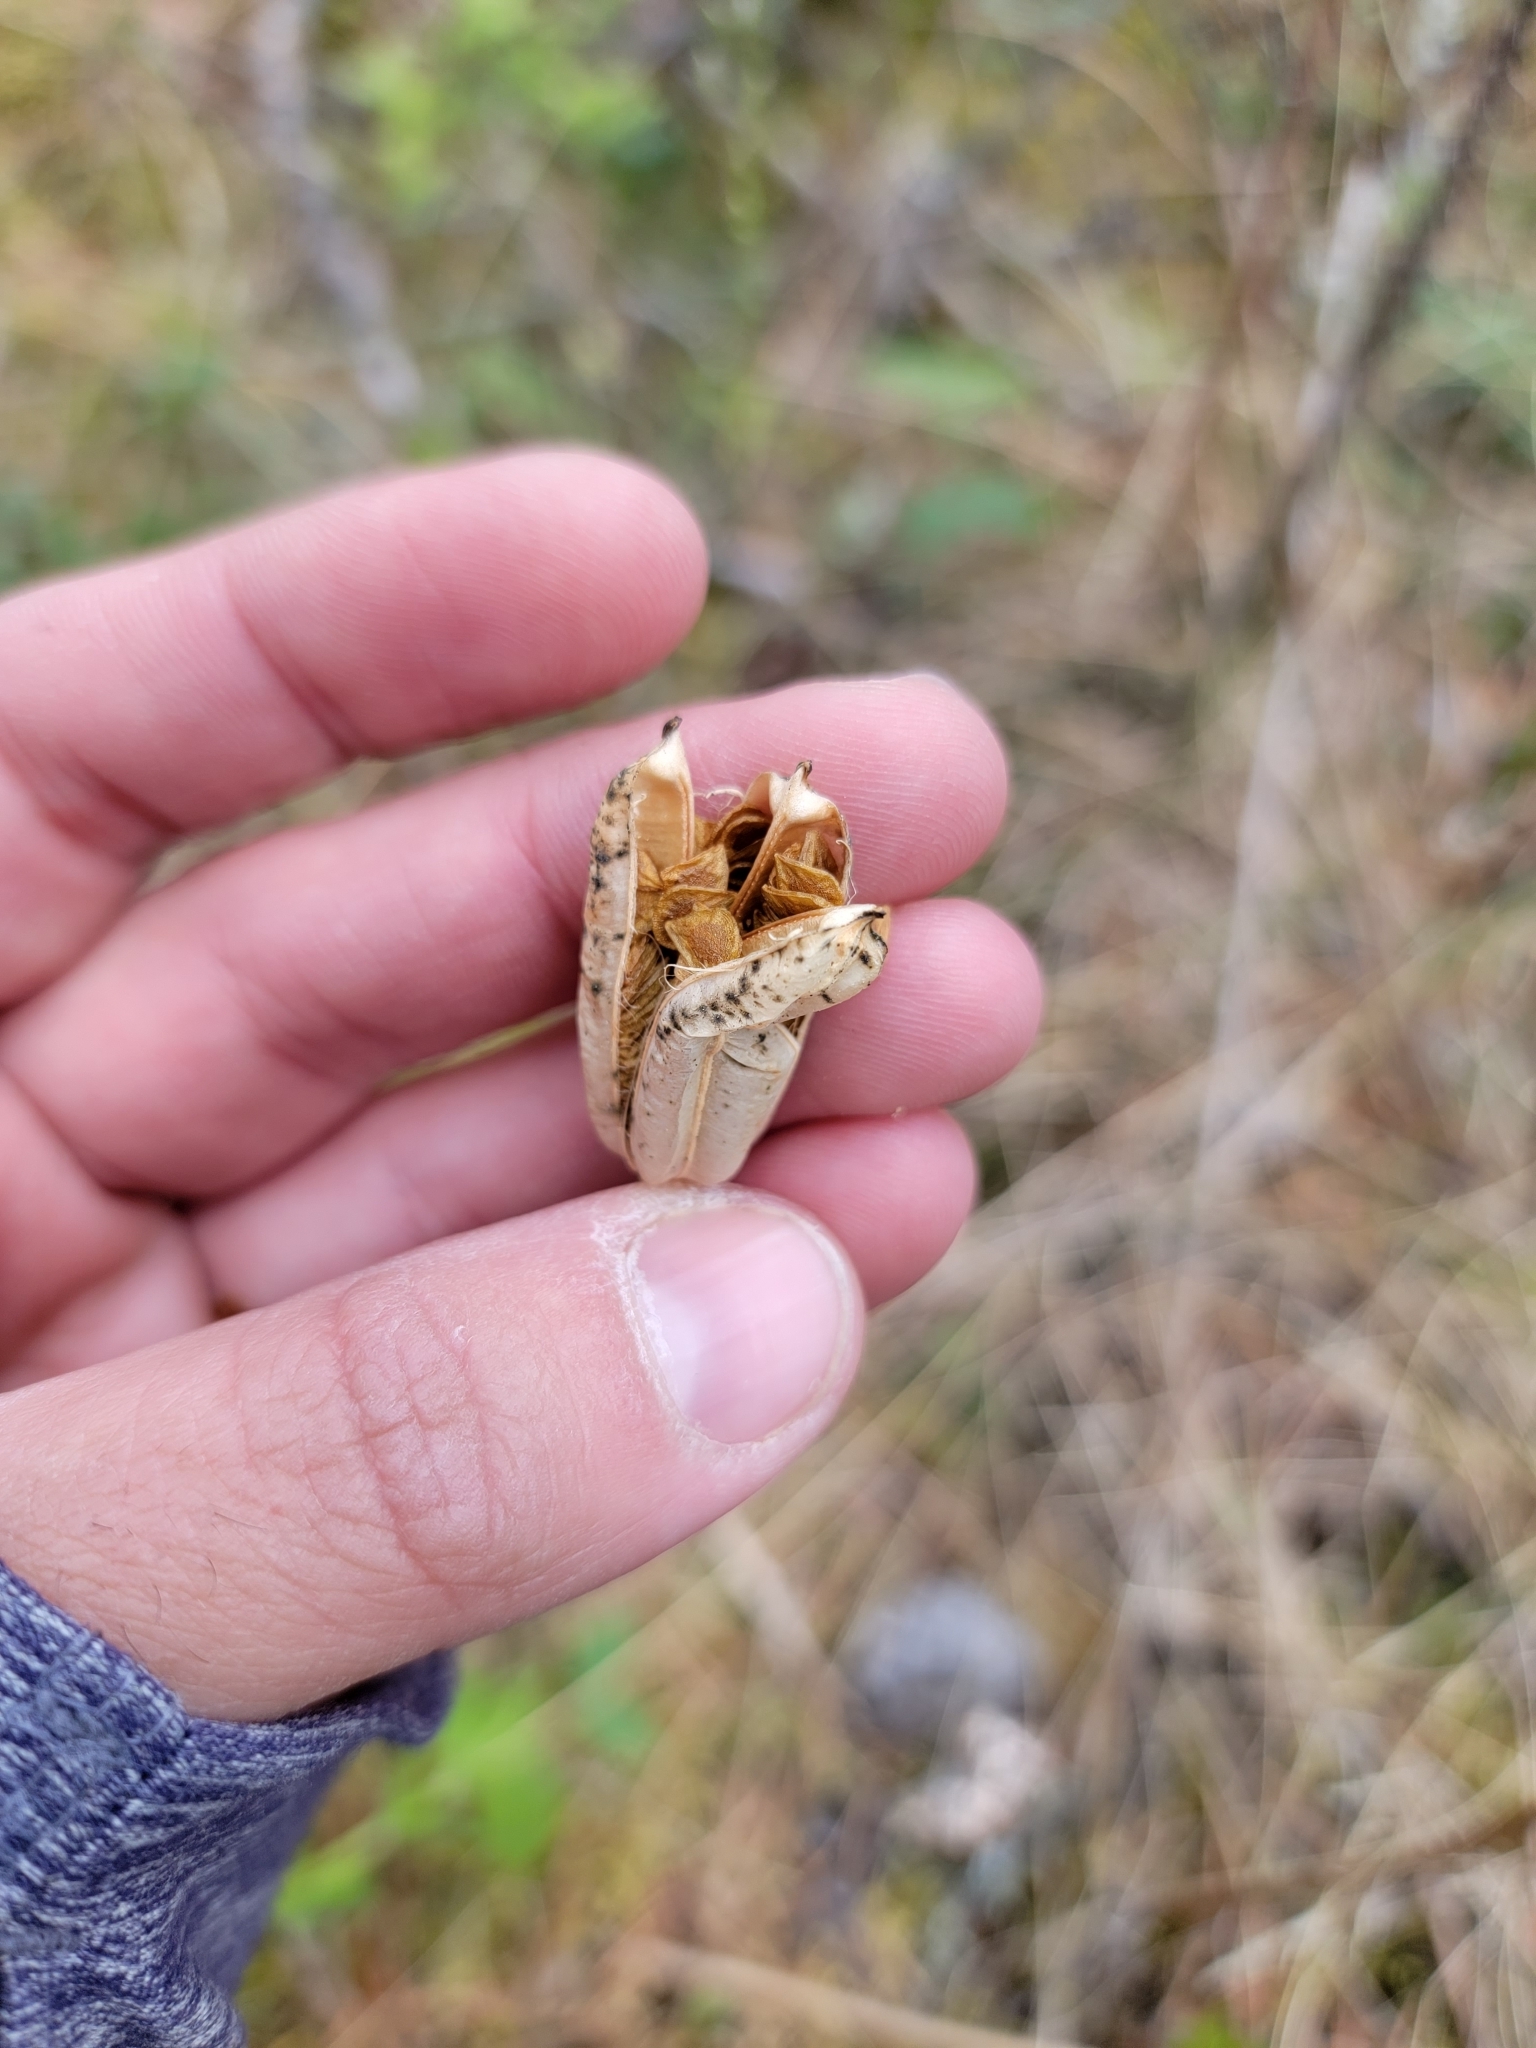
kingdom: Plantae
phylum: Tracheophyta
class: Liliopsida
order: Liliales
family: Liliaceae
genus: Lilium
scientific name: Lilium philadelphicum
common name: Red lily
